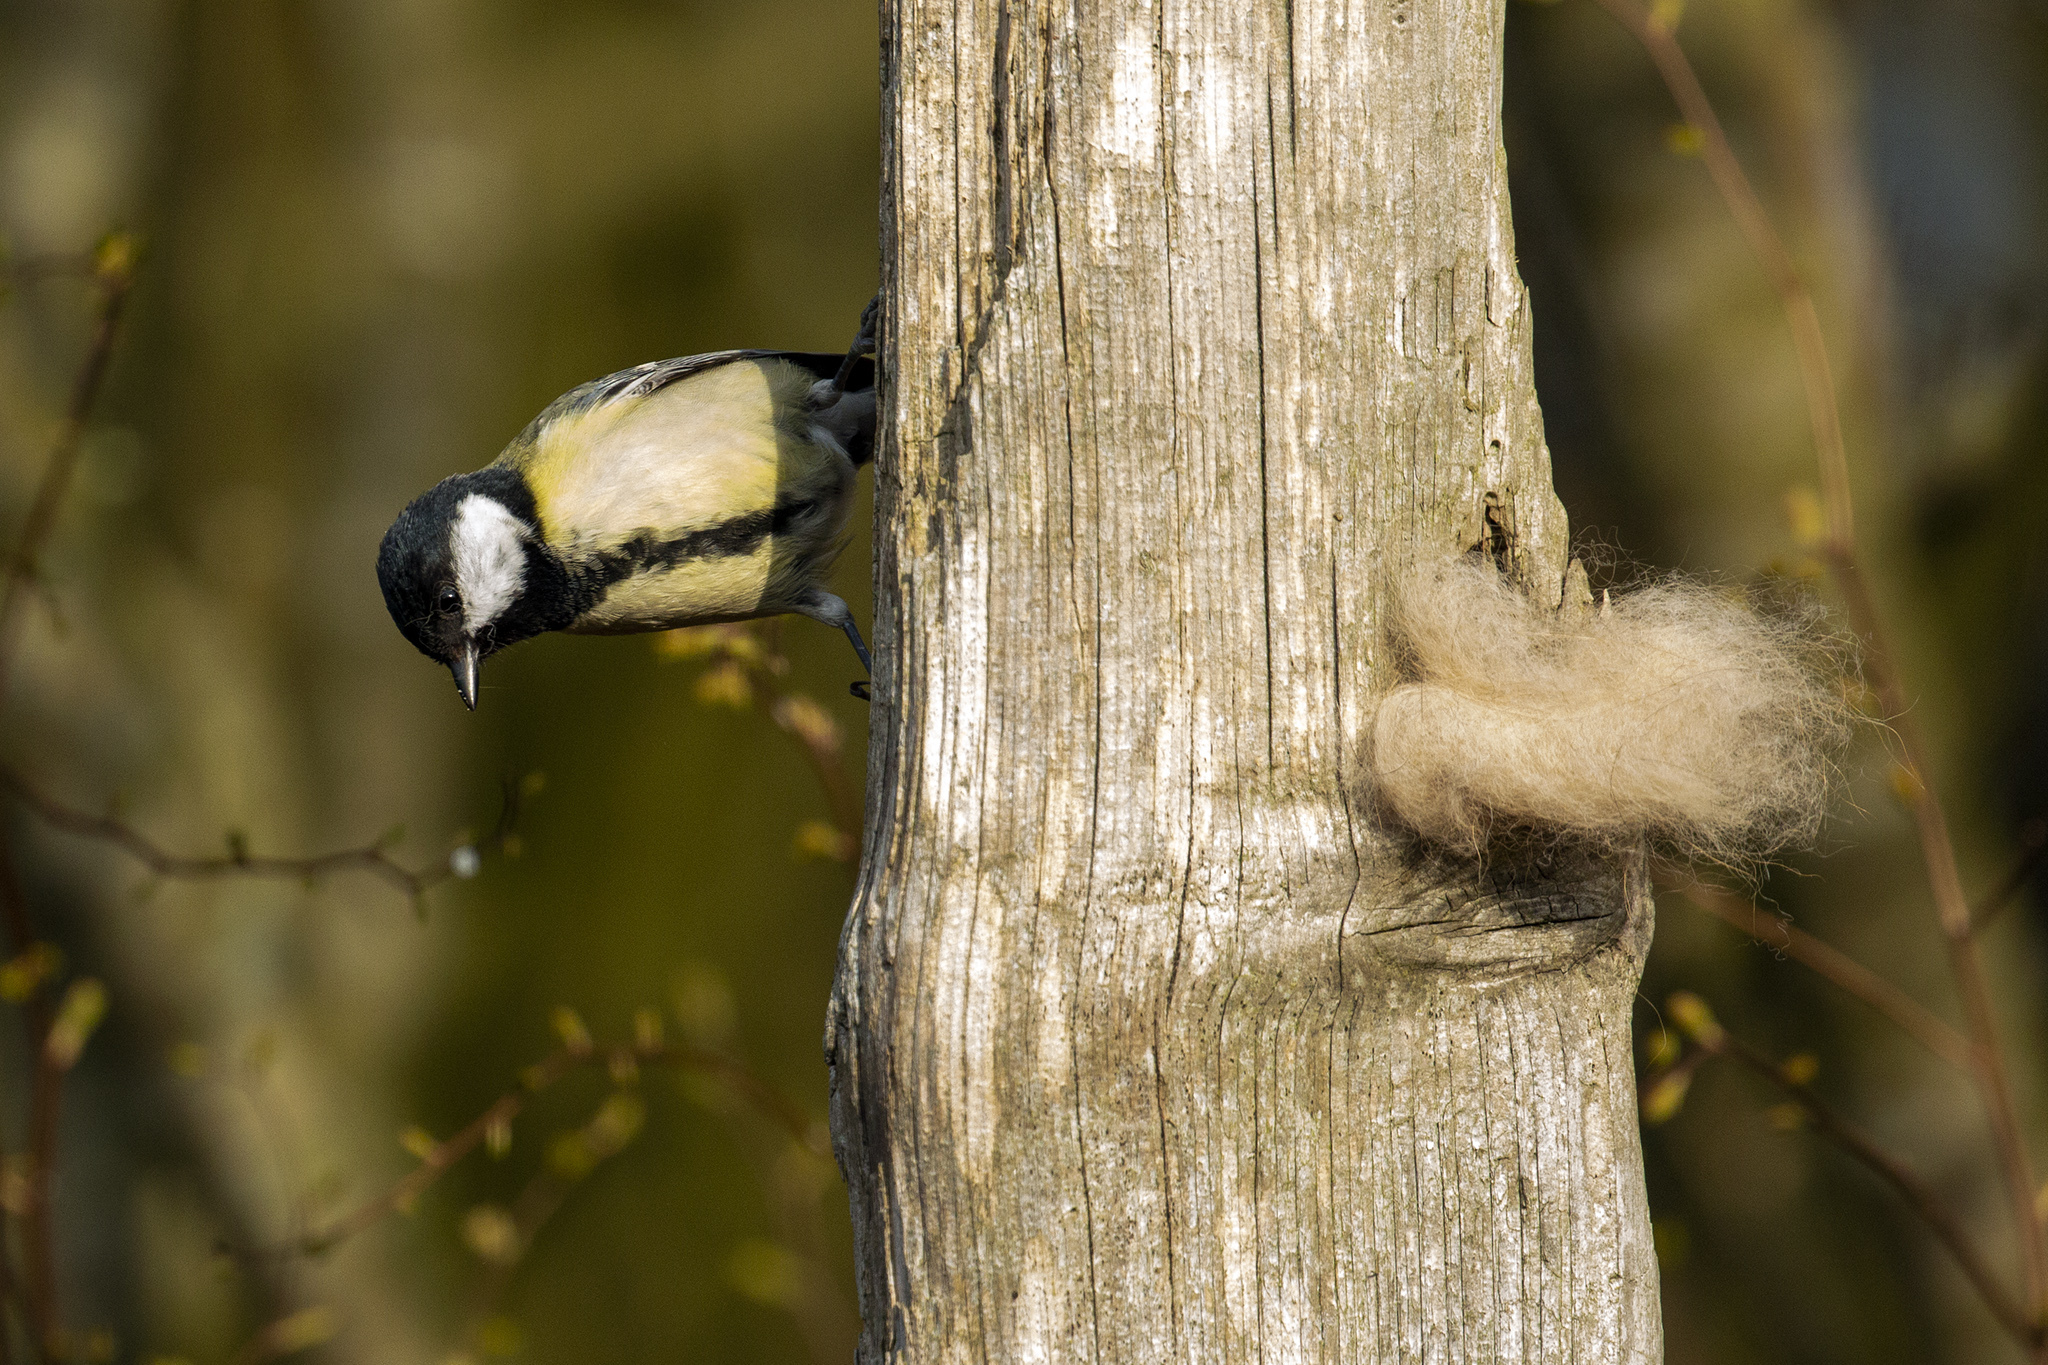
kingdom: Animalia
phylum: Chordata
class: Aves
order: Passeriformes
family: Paridae
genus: Parus
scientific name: Parus major
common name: Great tit
